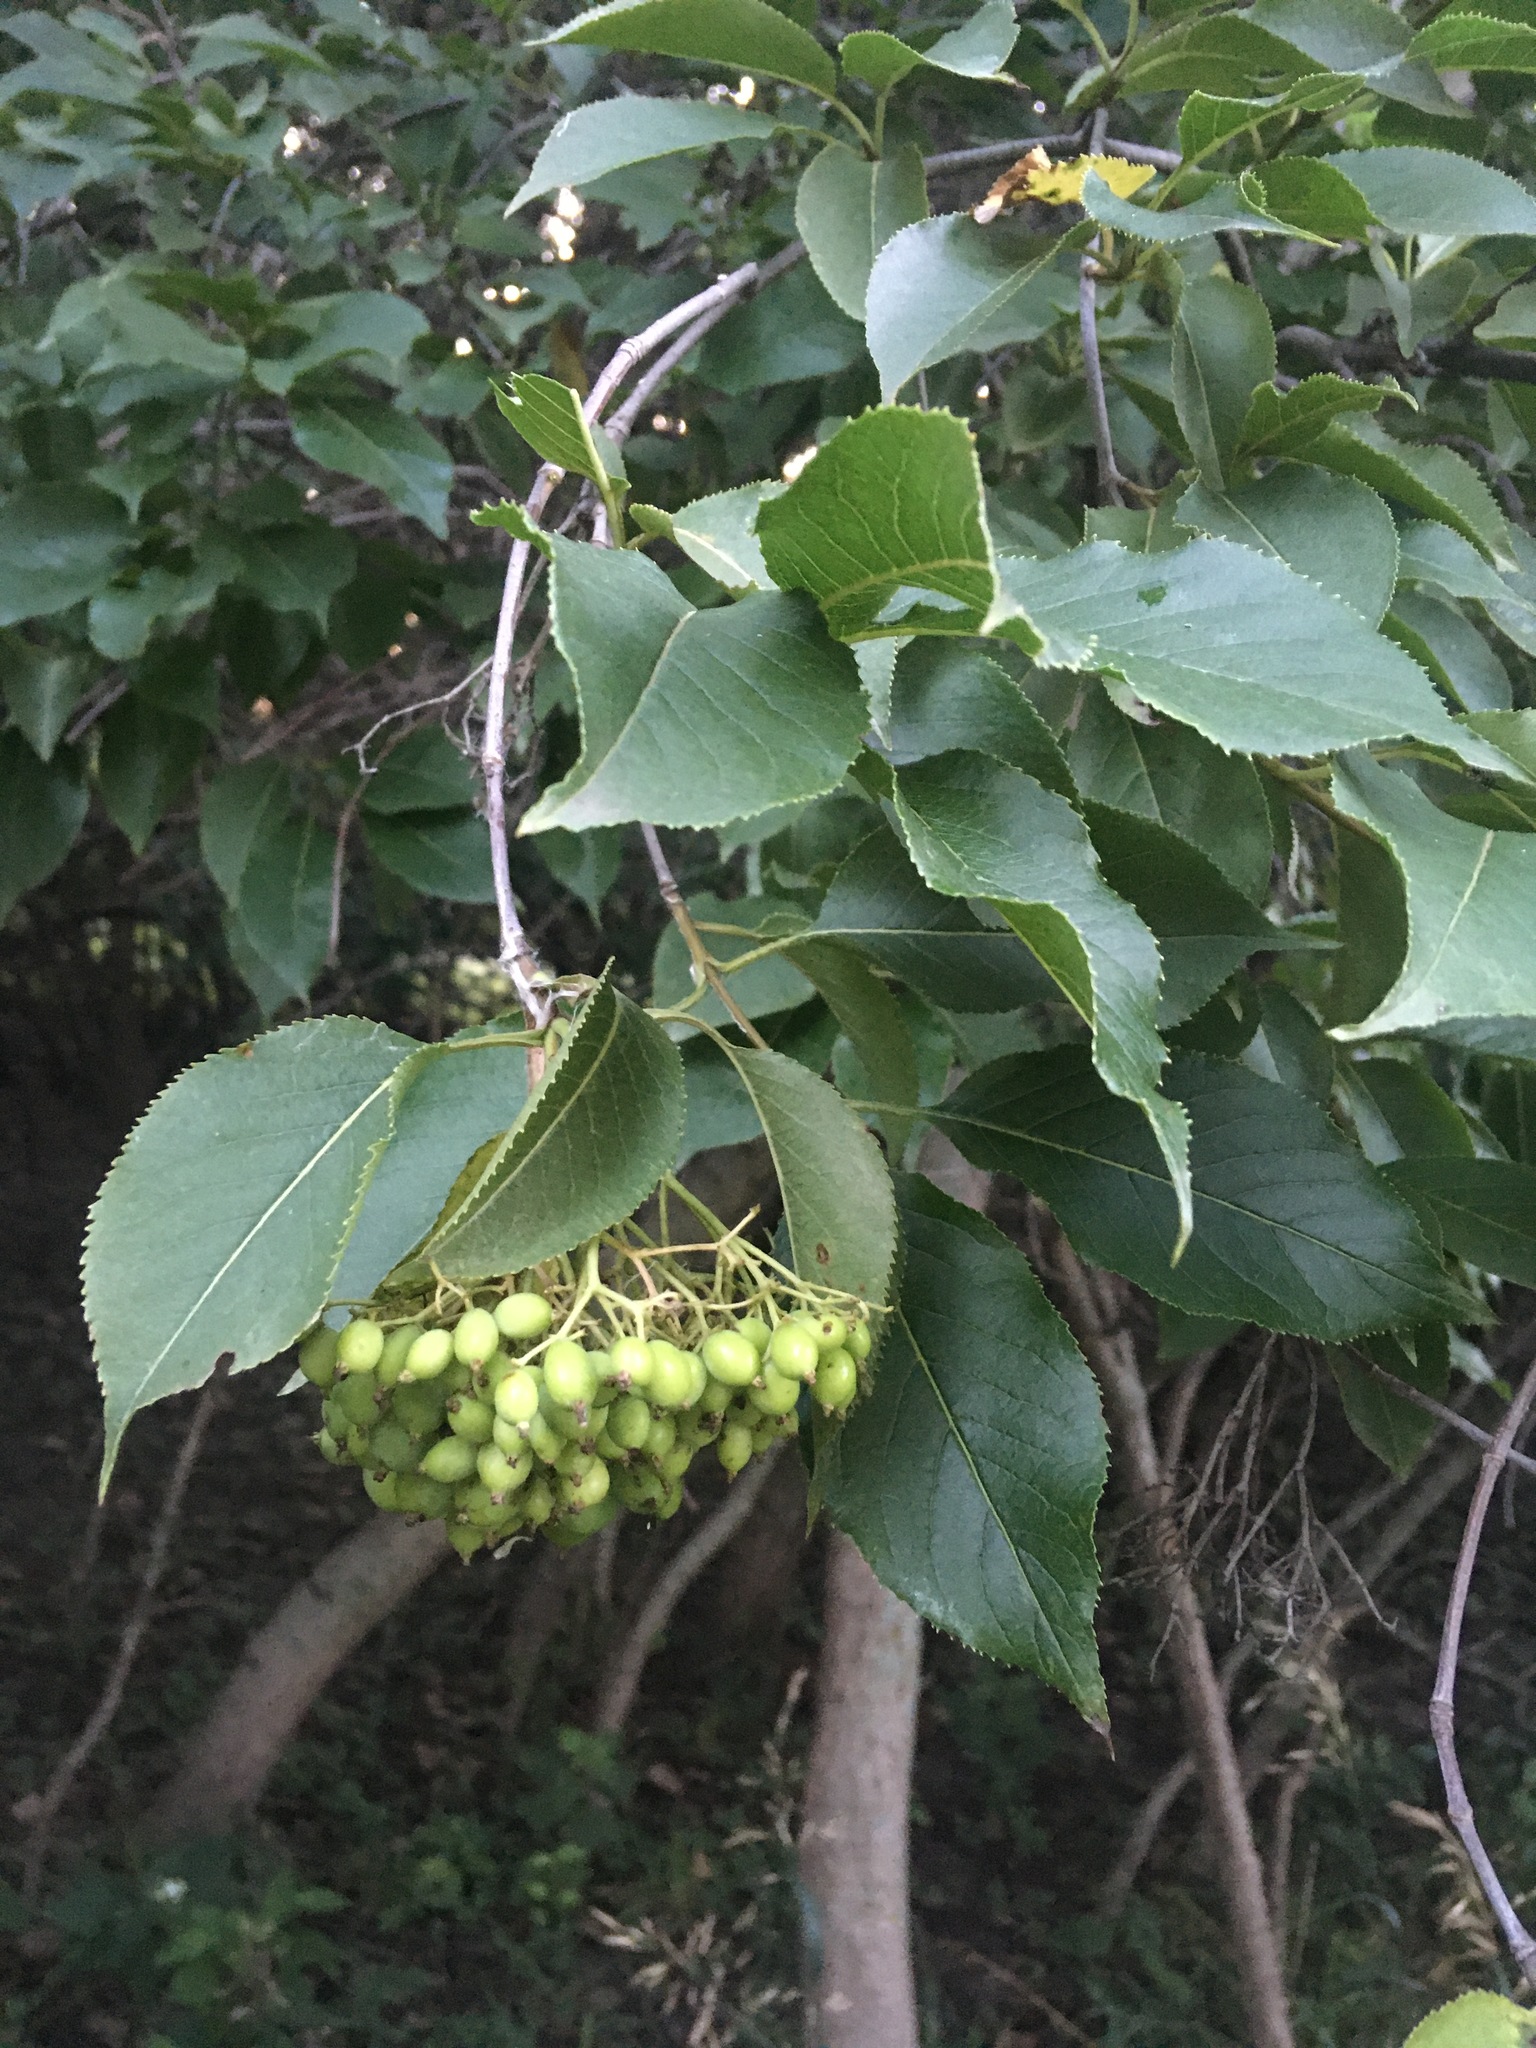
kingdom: Plantae
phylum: Tracheophyta
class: Magnoliopsida
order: Dipsacales
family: Viburnaceae
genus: Viburnum
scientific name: Viburnum lentago
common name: Black haw
